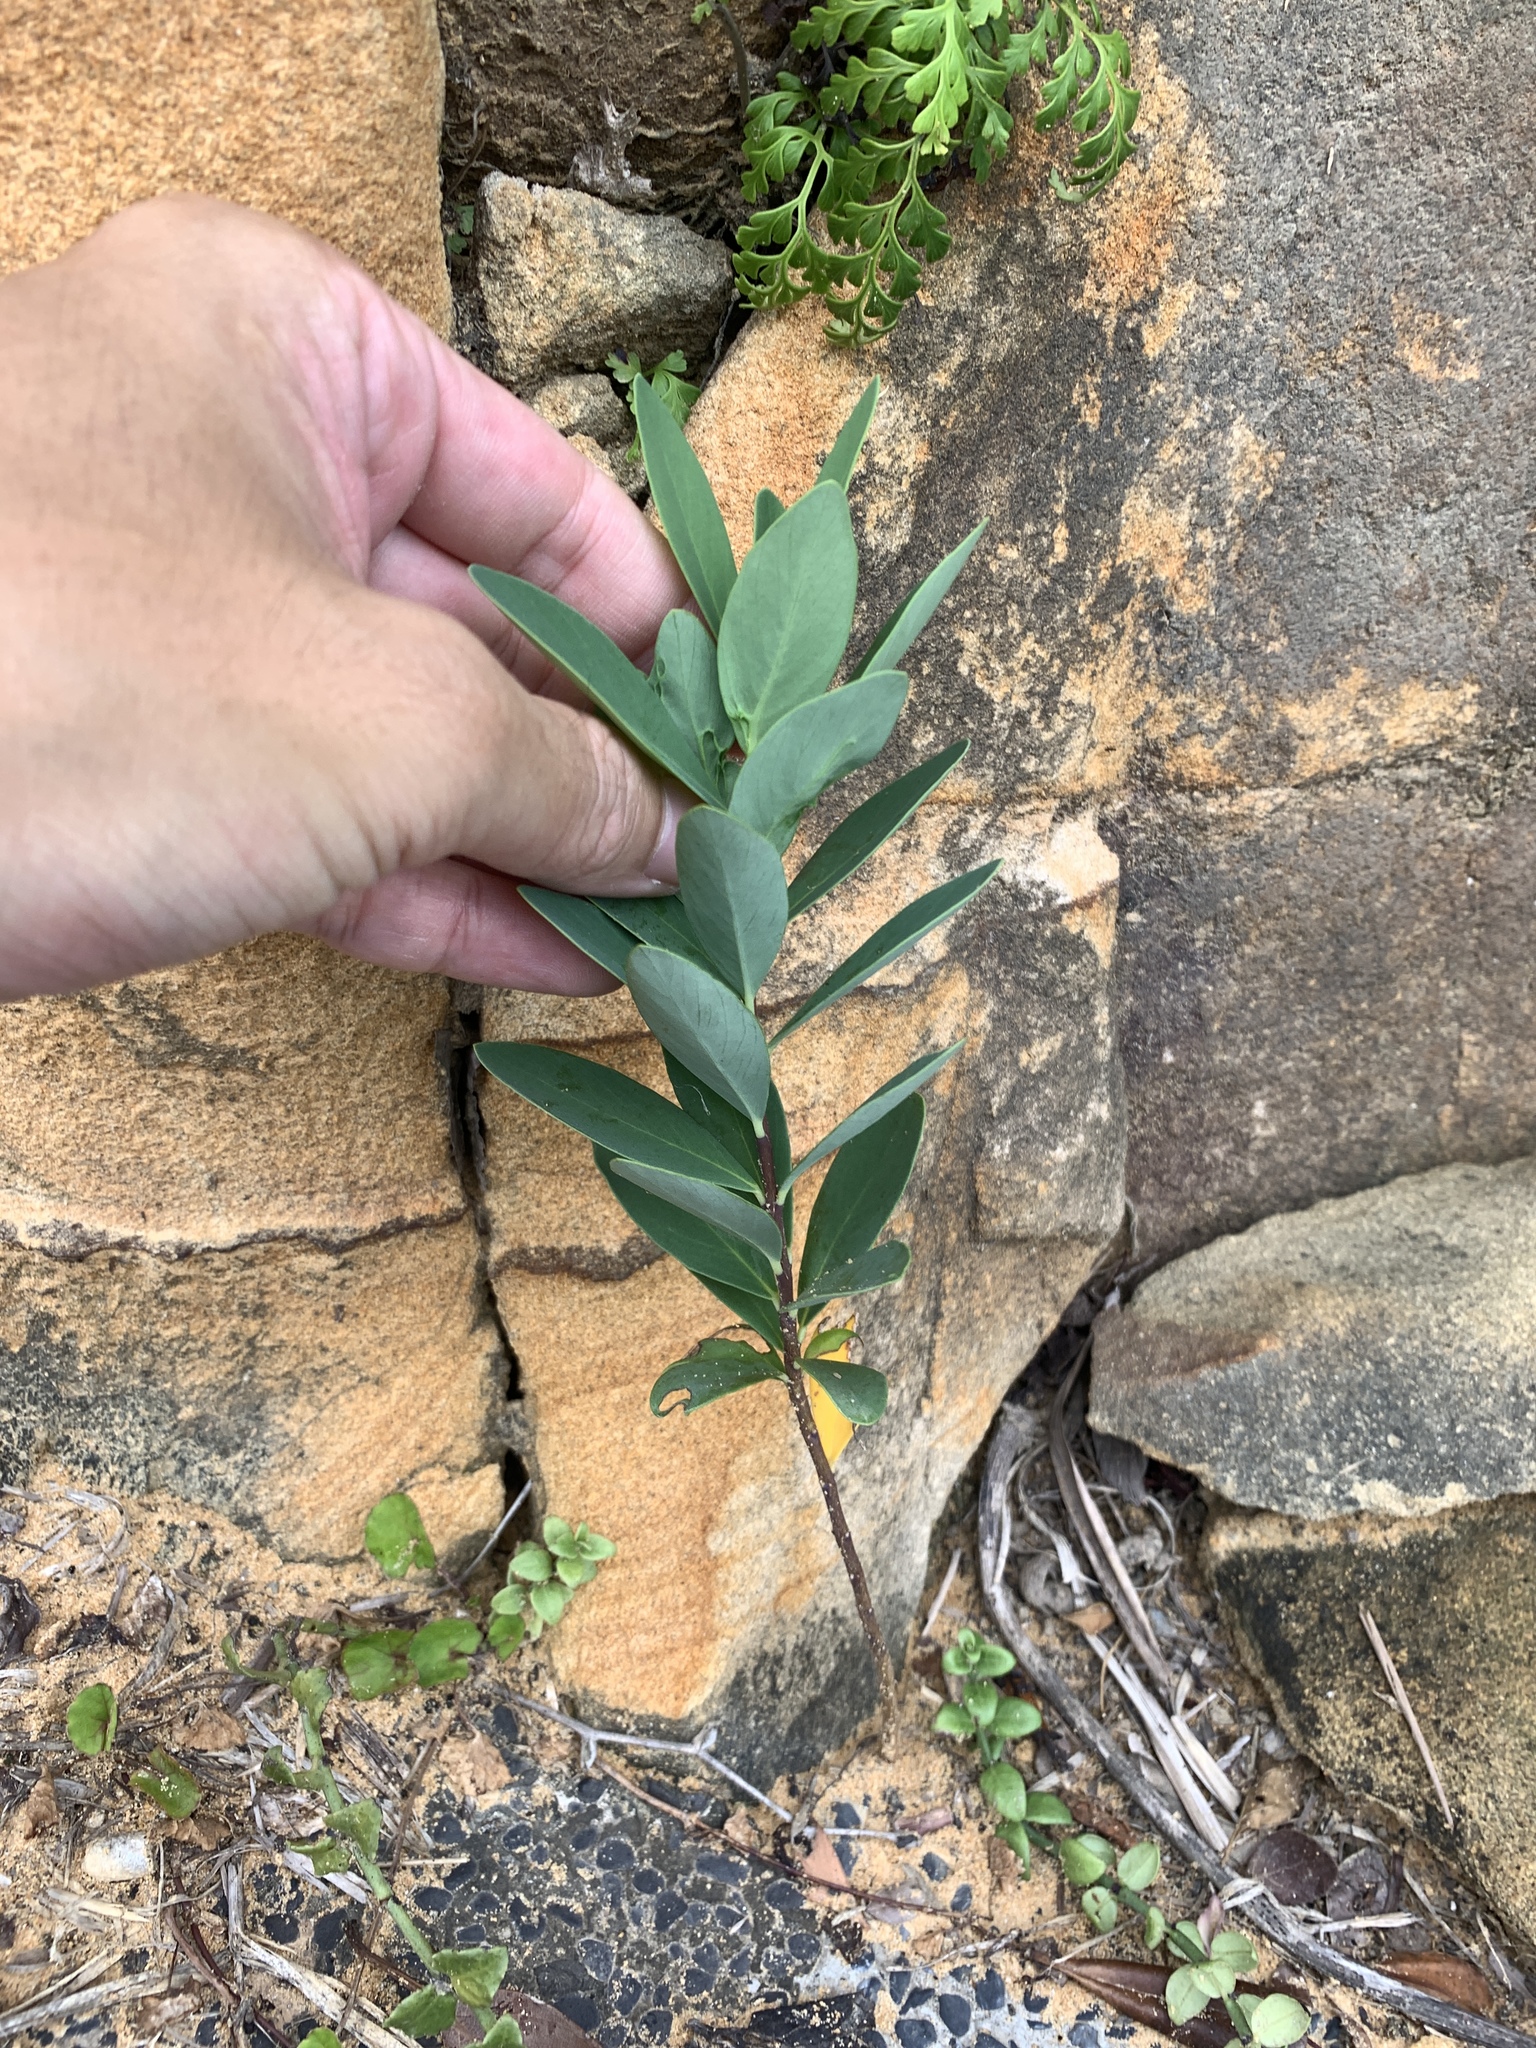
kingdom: Plantae
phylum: Tracheophyta
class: Magnoliopsida
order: Malvales
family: Thymelaeaceae
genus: Wikstroemia
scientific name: Wikstroemia indica
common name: Tiebush
